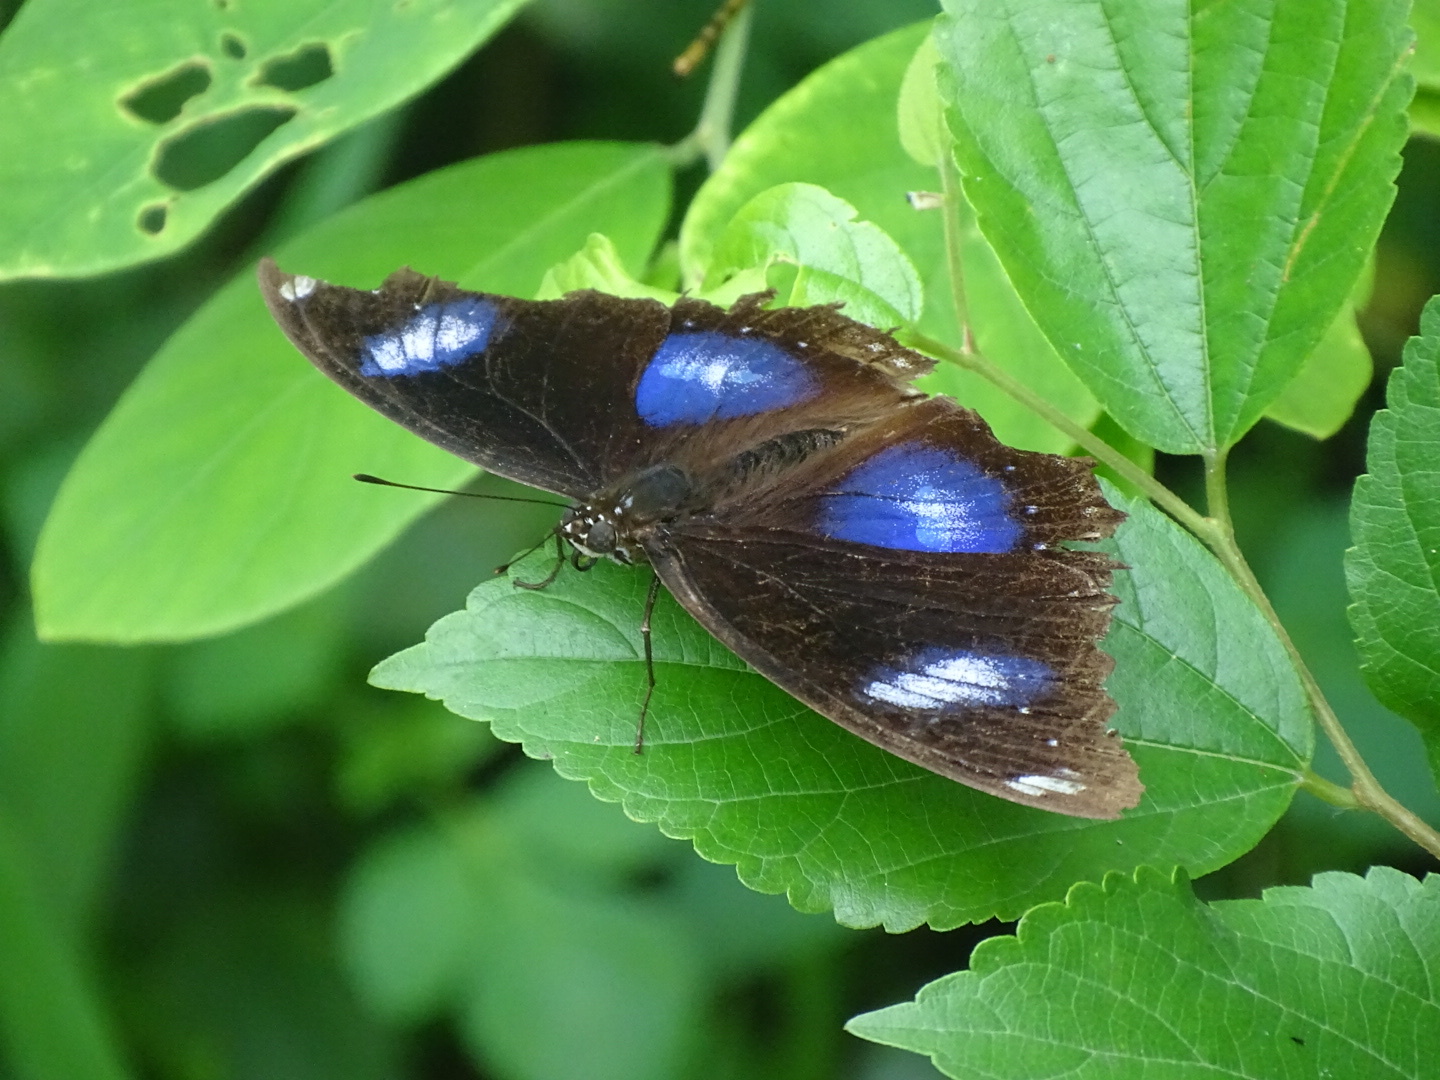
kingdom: Animalia
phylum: Arthropoda
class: Insecta
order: Lepidoptera
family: Nymphalidae
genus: Hypolimnas
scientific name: Hypolimnas bolina
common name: Great eggfly
